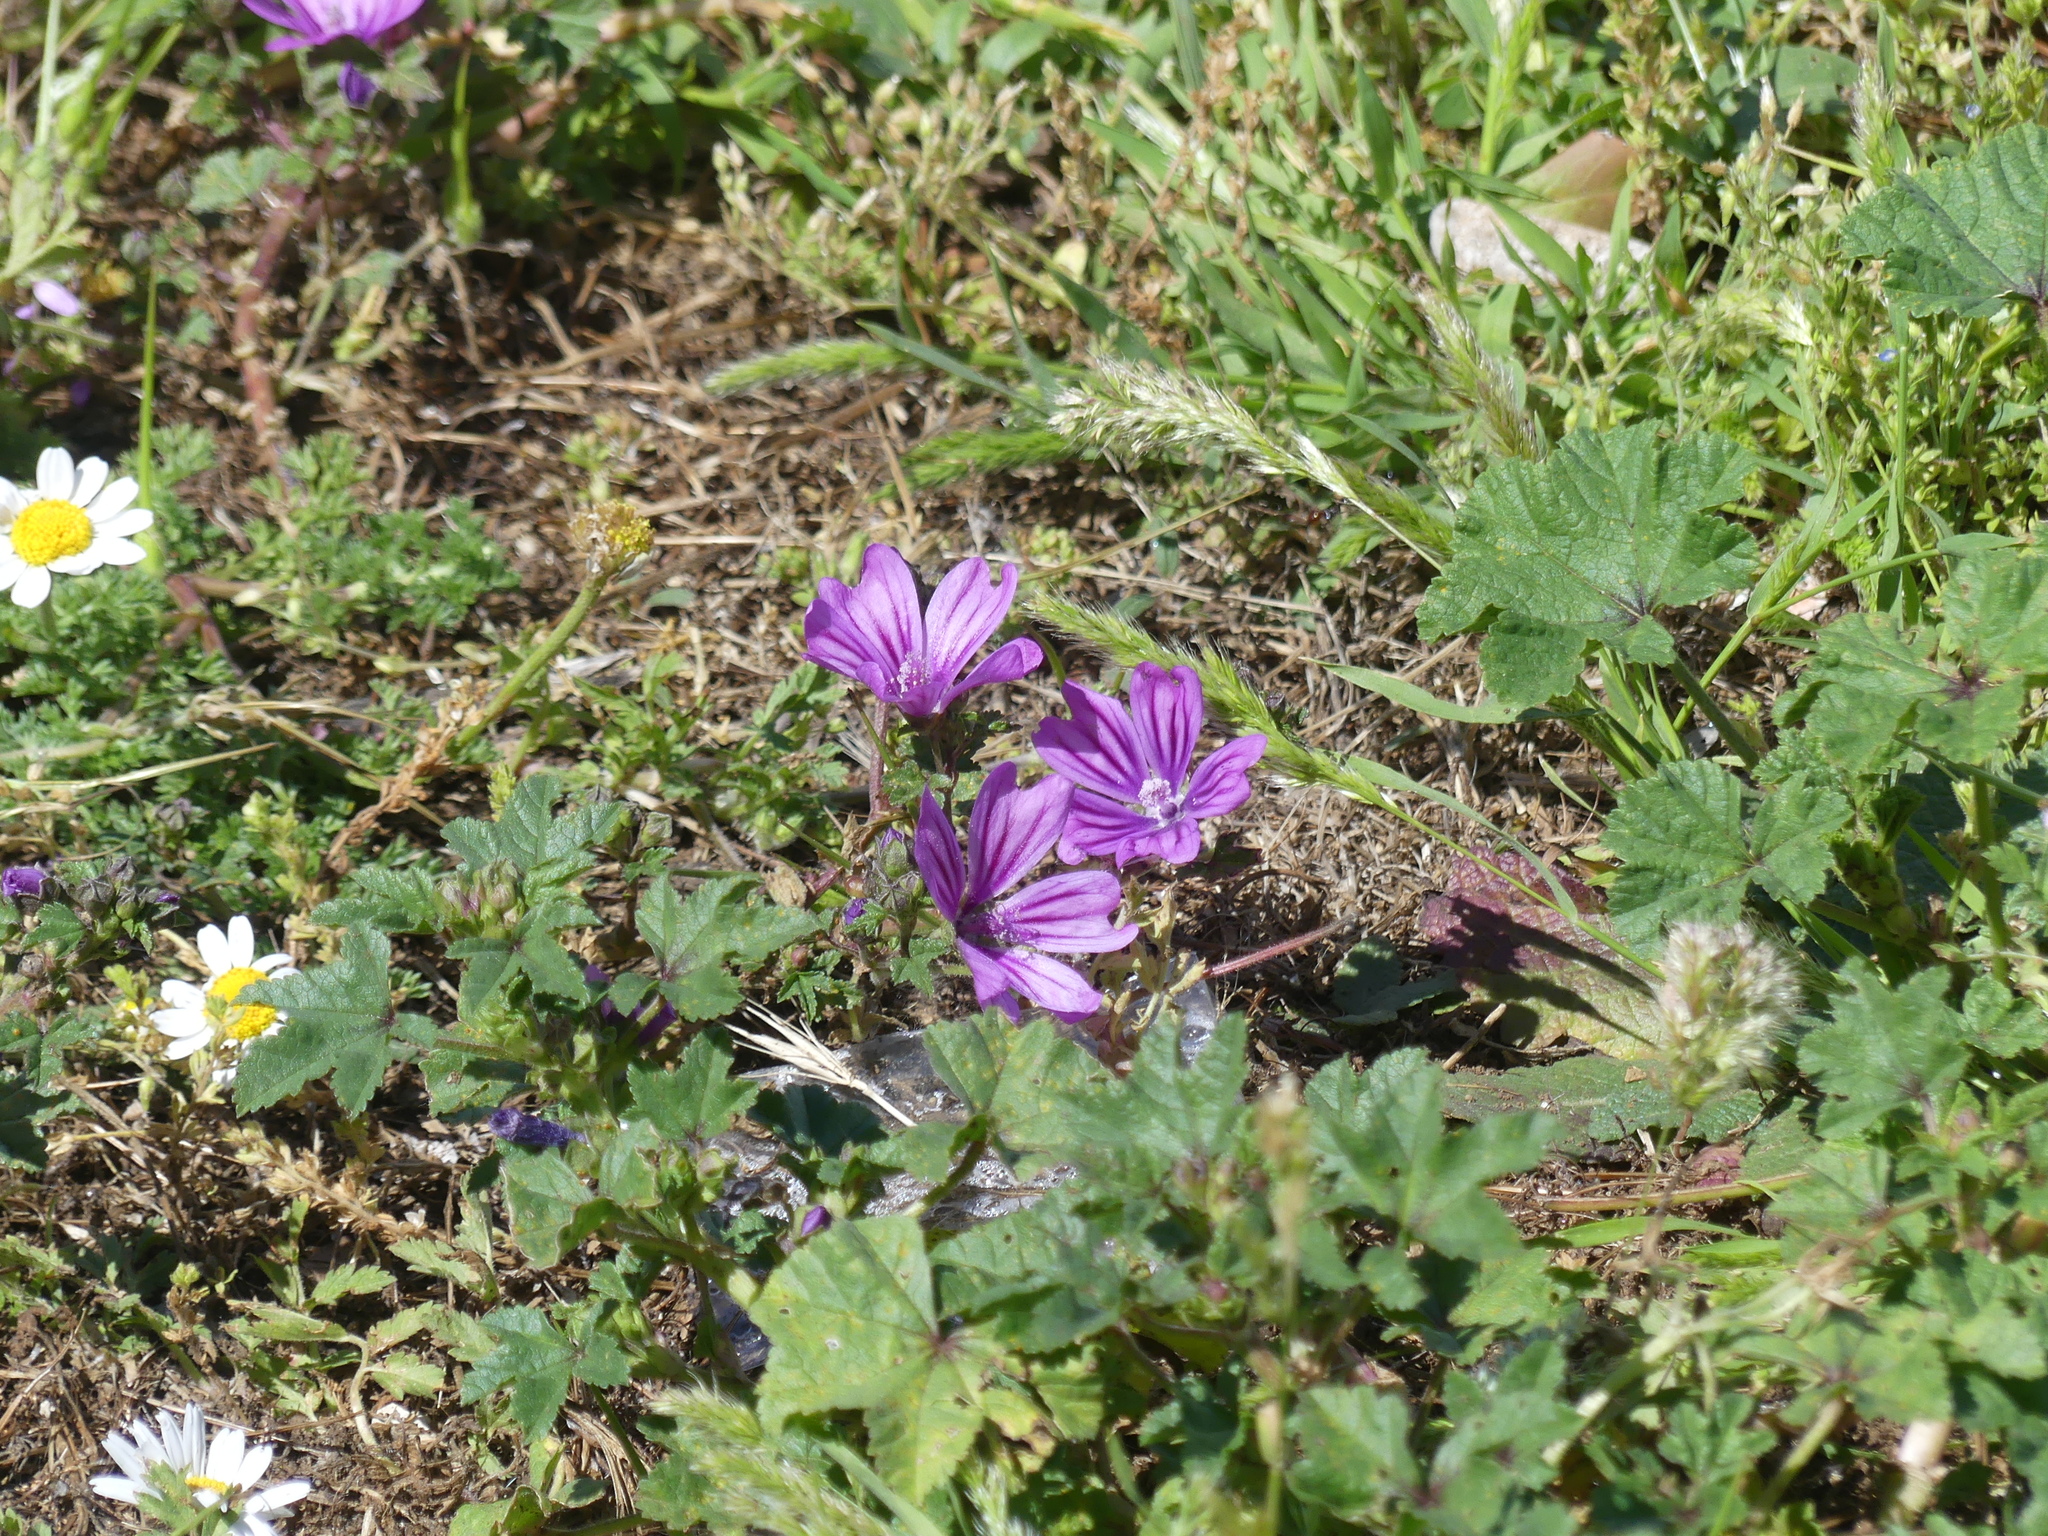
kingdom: Plantae
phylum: Tracheophyta
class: Magnoliopsida
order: Malvales
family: Malvaceae
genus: Malva
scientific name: Malva sylvestris
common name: Common mallow
